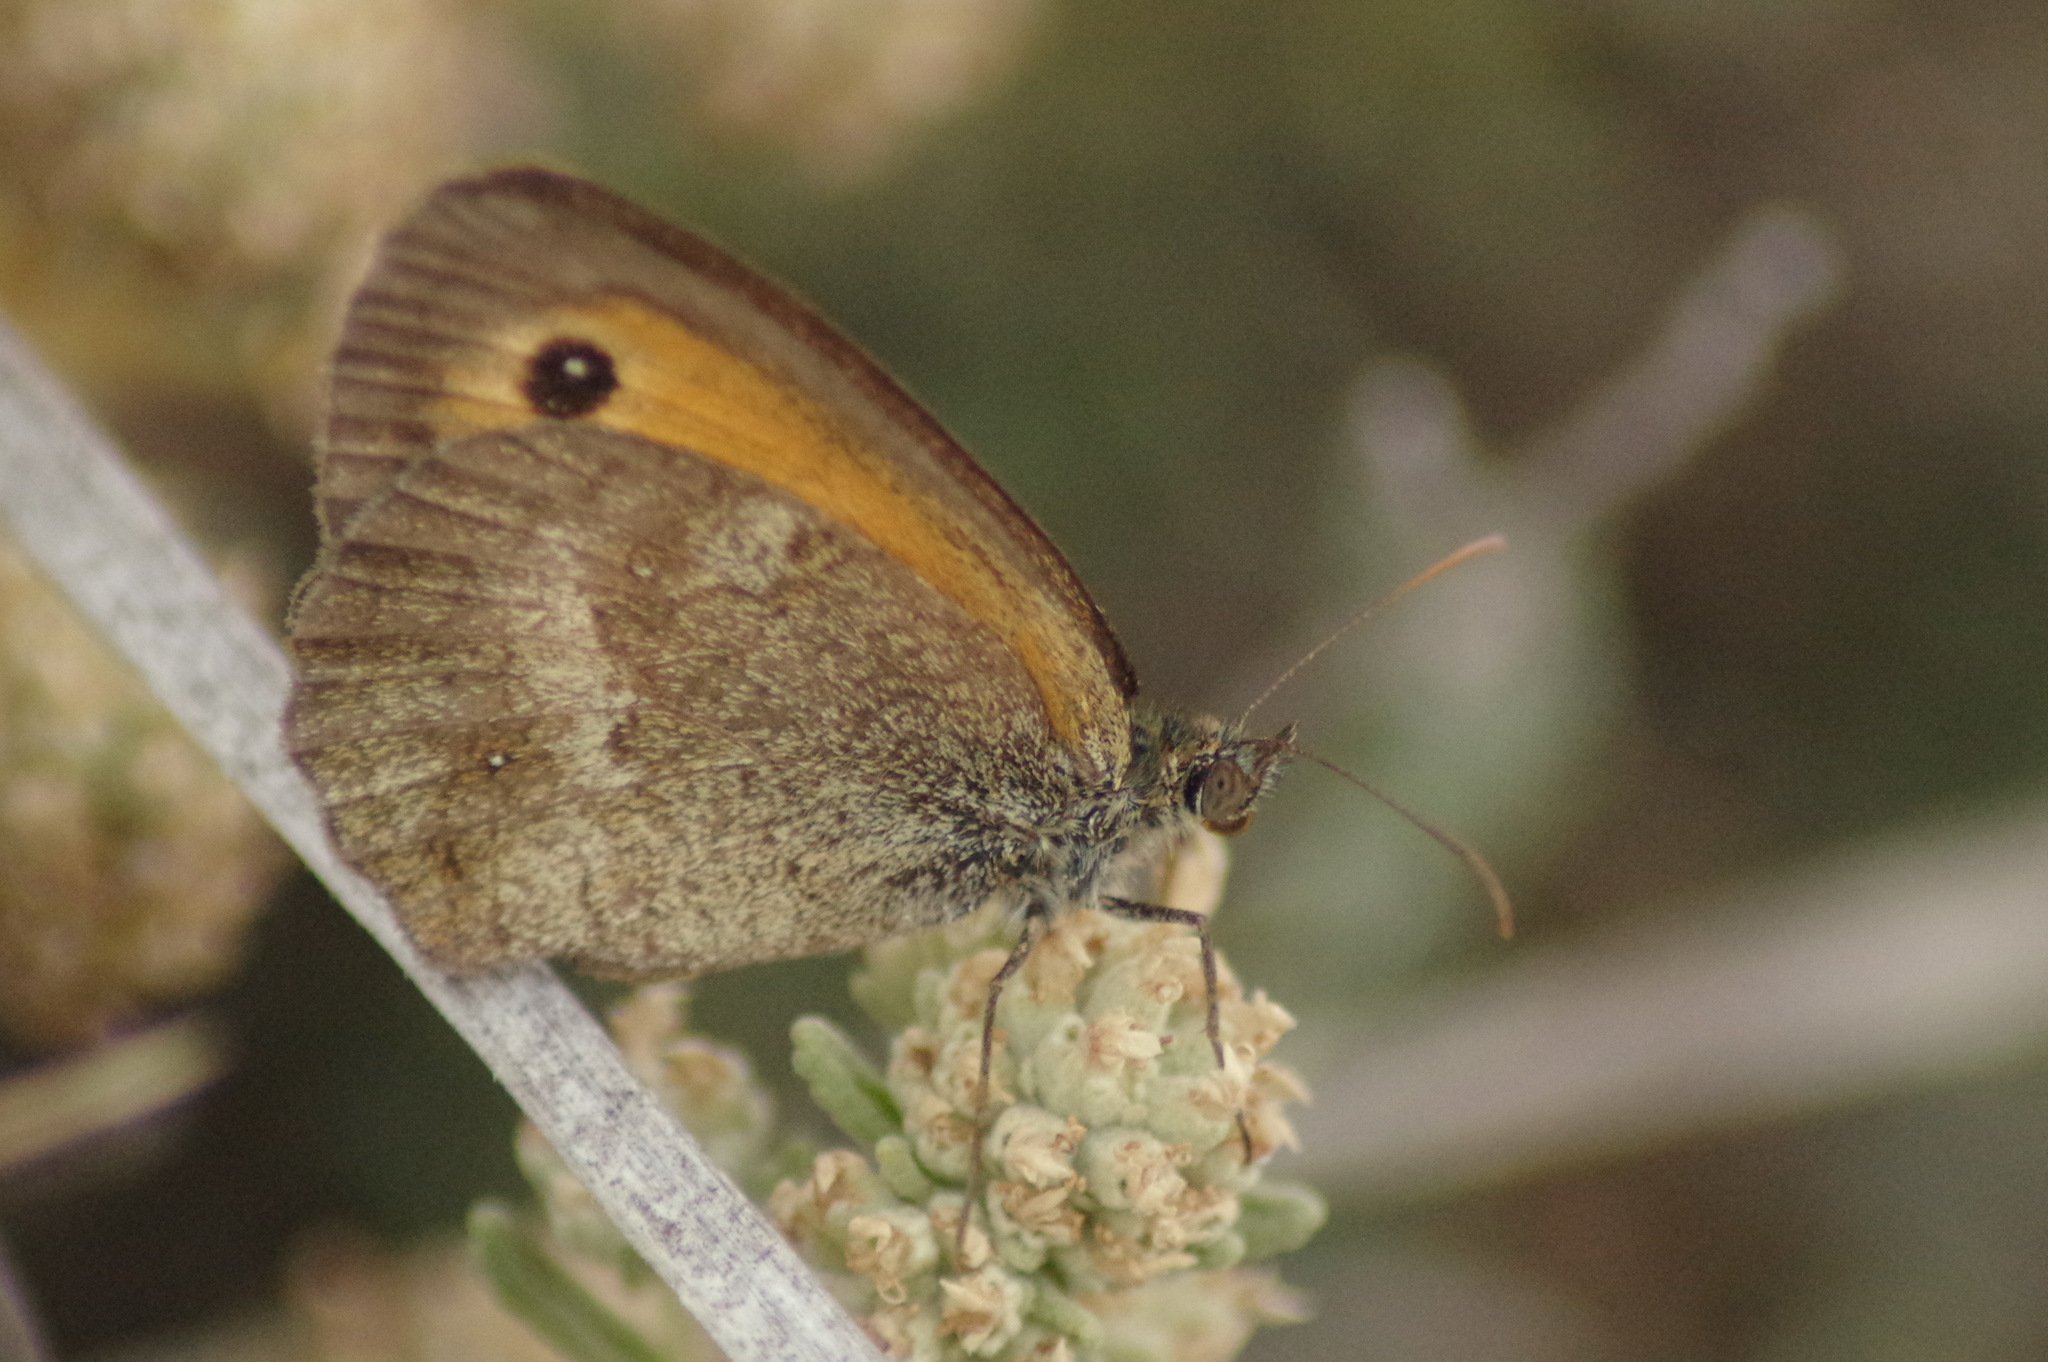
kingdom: Animalia
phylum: Arthropoda
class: Insecta
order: Lepidoptera
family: Nymphalidae
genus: Pyronia
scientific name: Pyronia tithonus
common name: Gatekeeper
